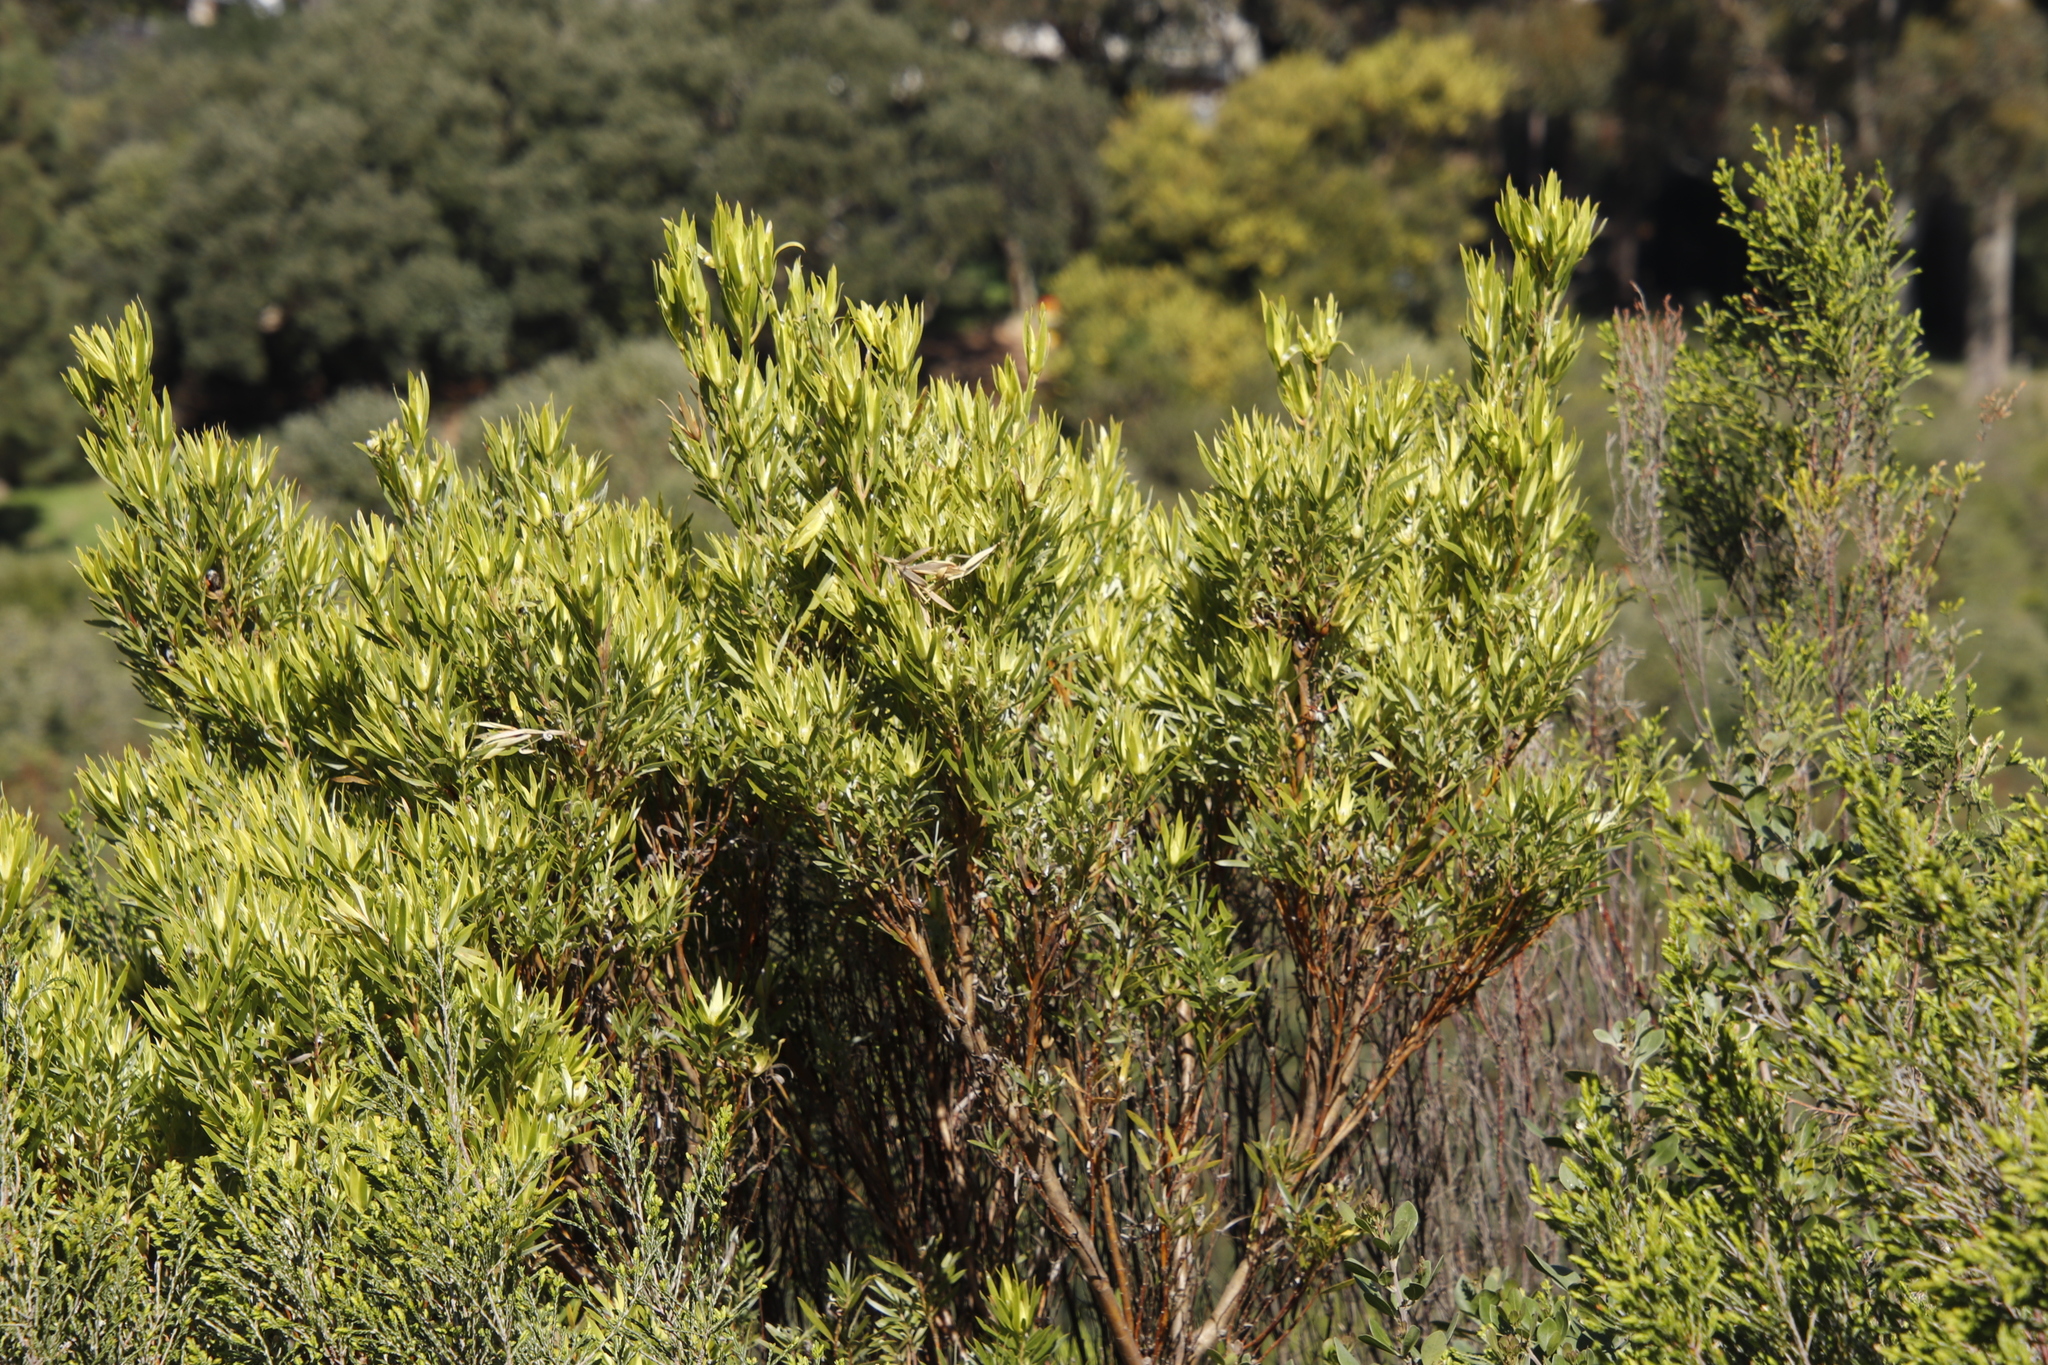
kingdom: Plantae
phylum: Tracheophyta
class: Magnoliopsida
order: Proteales
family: Proteaceae
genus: Leucadendron
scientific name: Leucadendron xanthoconus
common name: Sickle-leaf conebush
